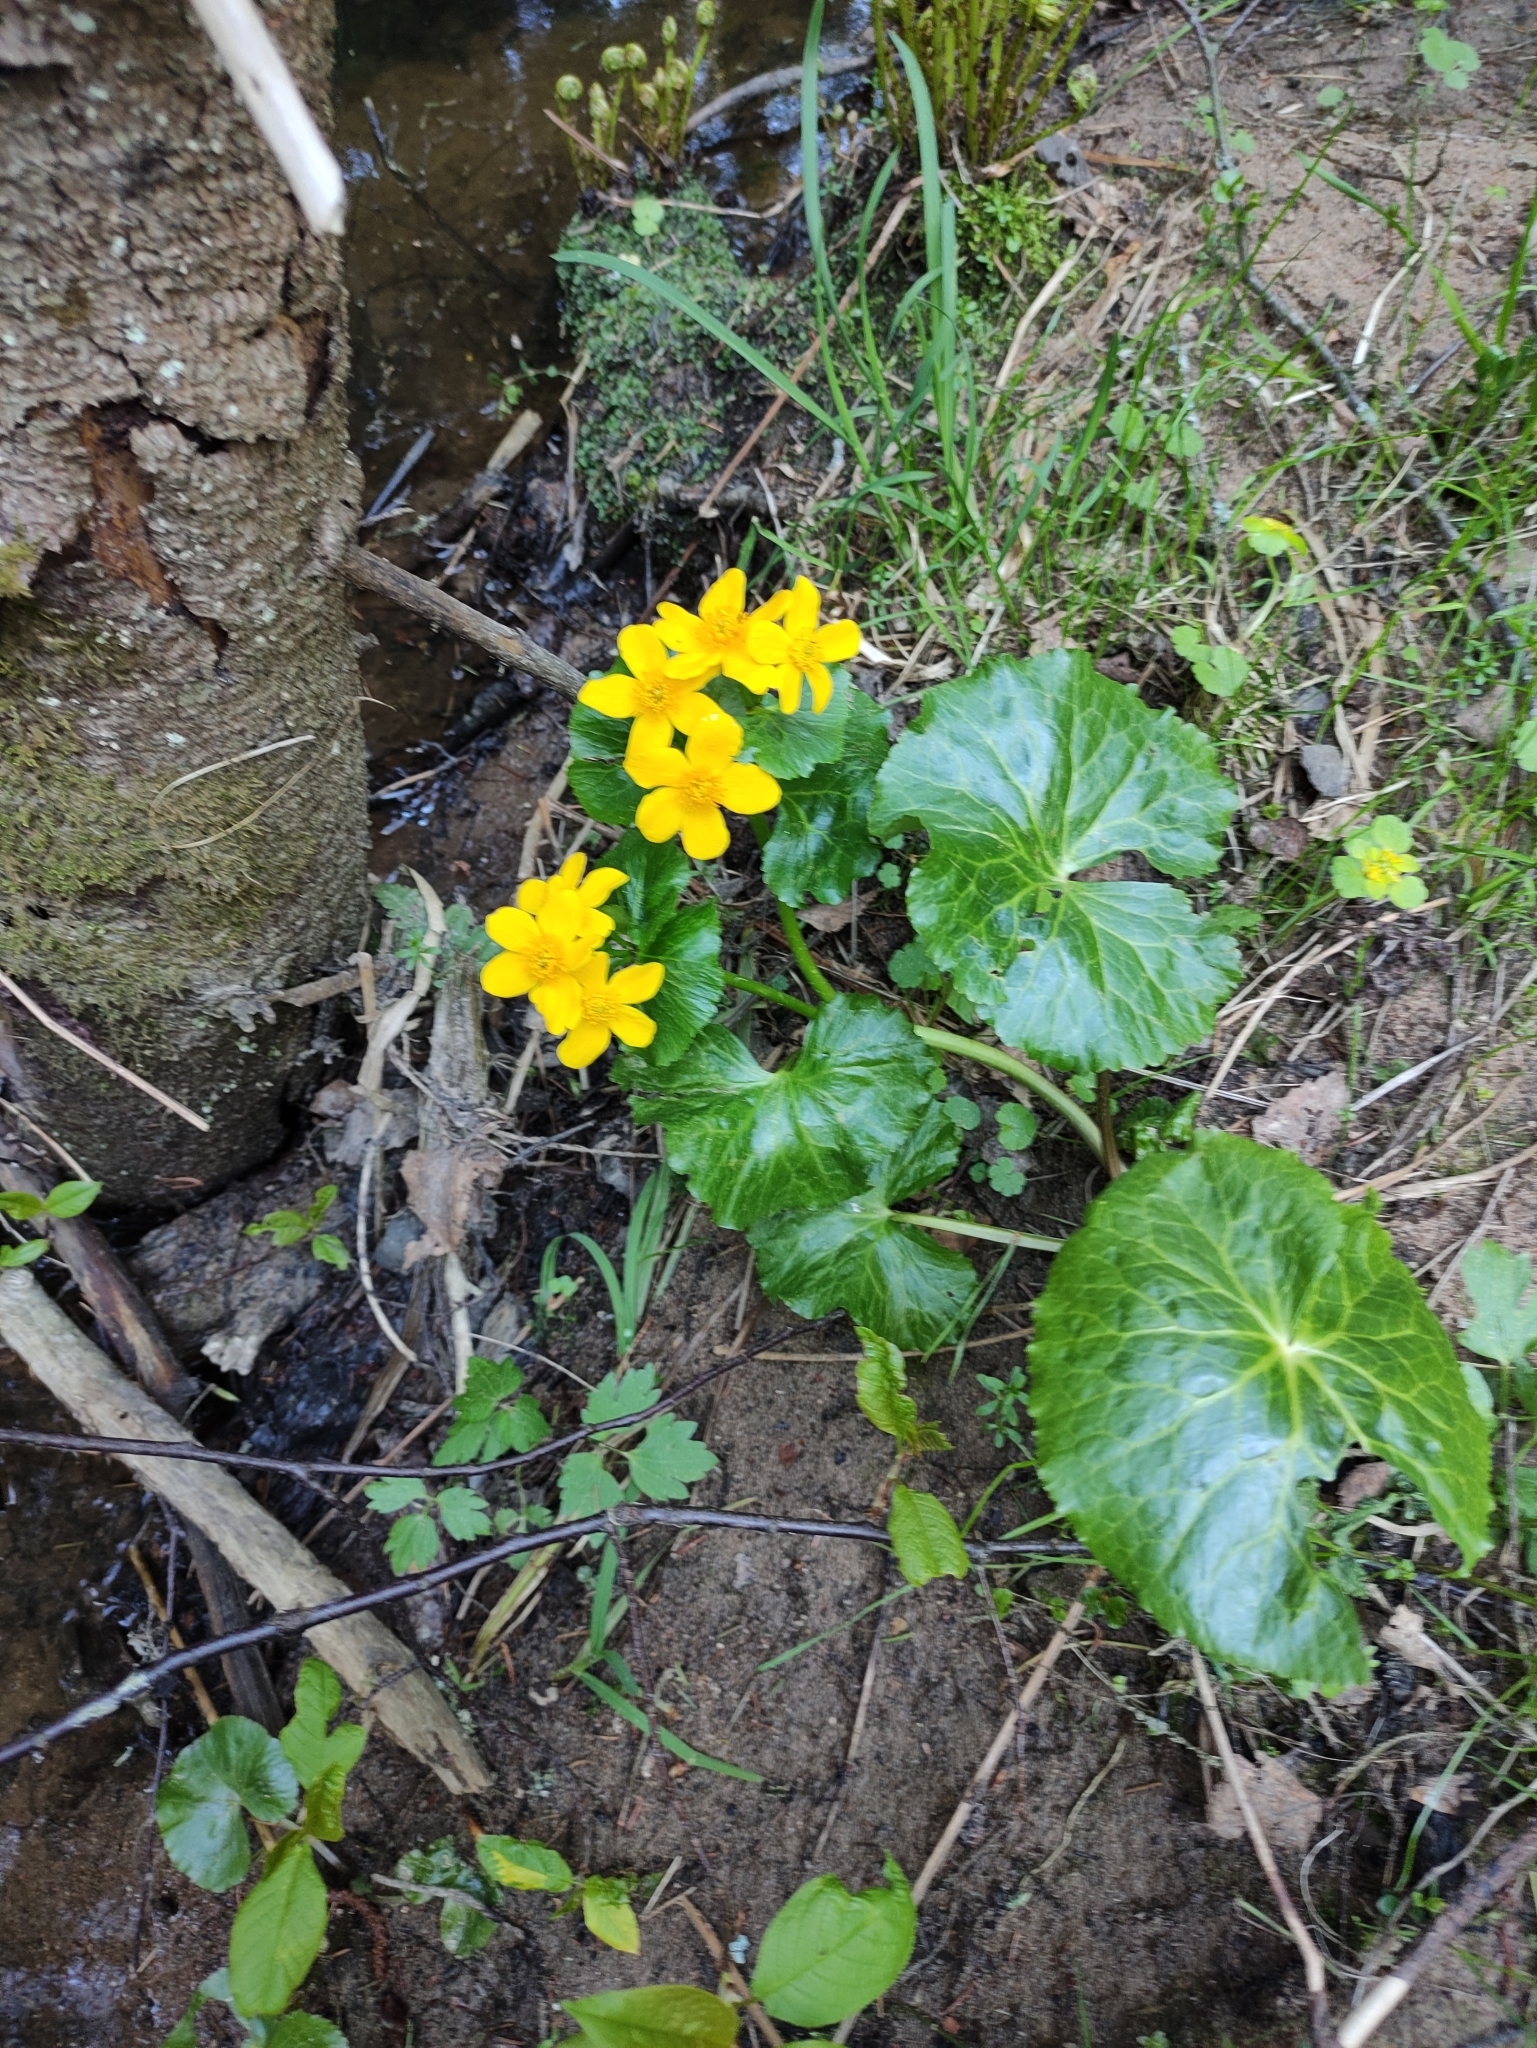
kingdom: Plantae
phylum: Tracheophyta
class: Magnoliopsida
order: Ranunculales
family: Ranunculaceae
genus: Caltha
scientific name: Caltha palustris
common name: Marsh marigold
